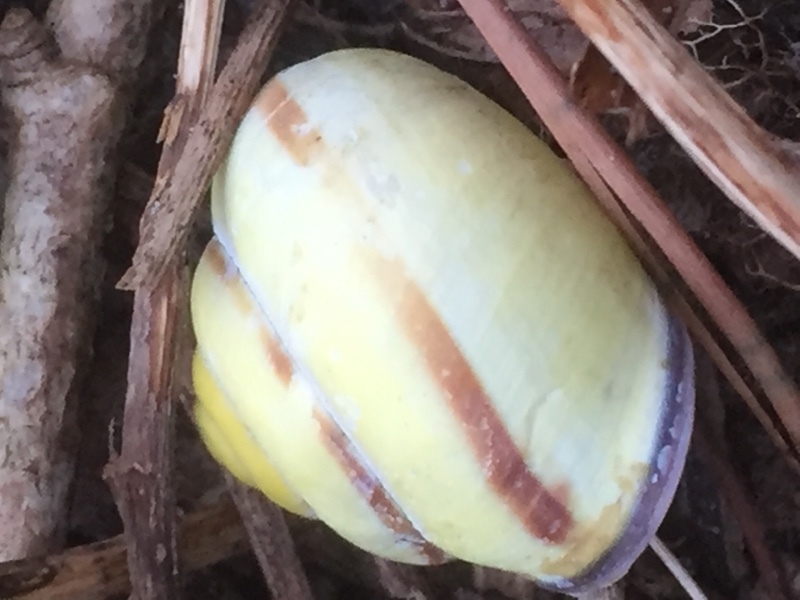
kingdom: Animalia
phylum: Mollusca
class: Gastropoda
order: Stylommatophora
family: Helicidae
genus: Cepaea
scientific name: Cepaea nemoralis
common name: Grovesnail
